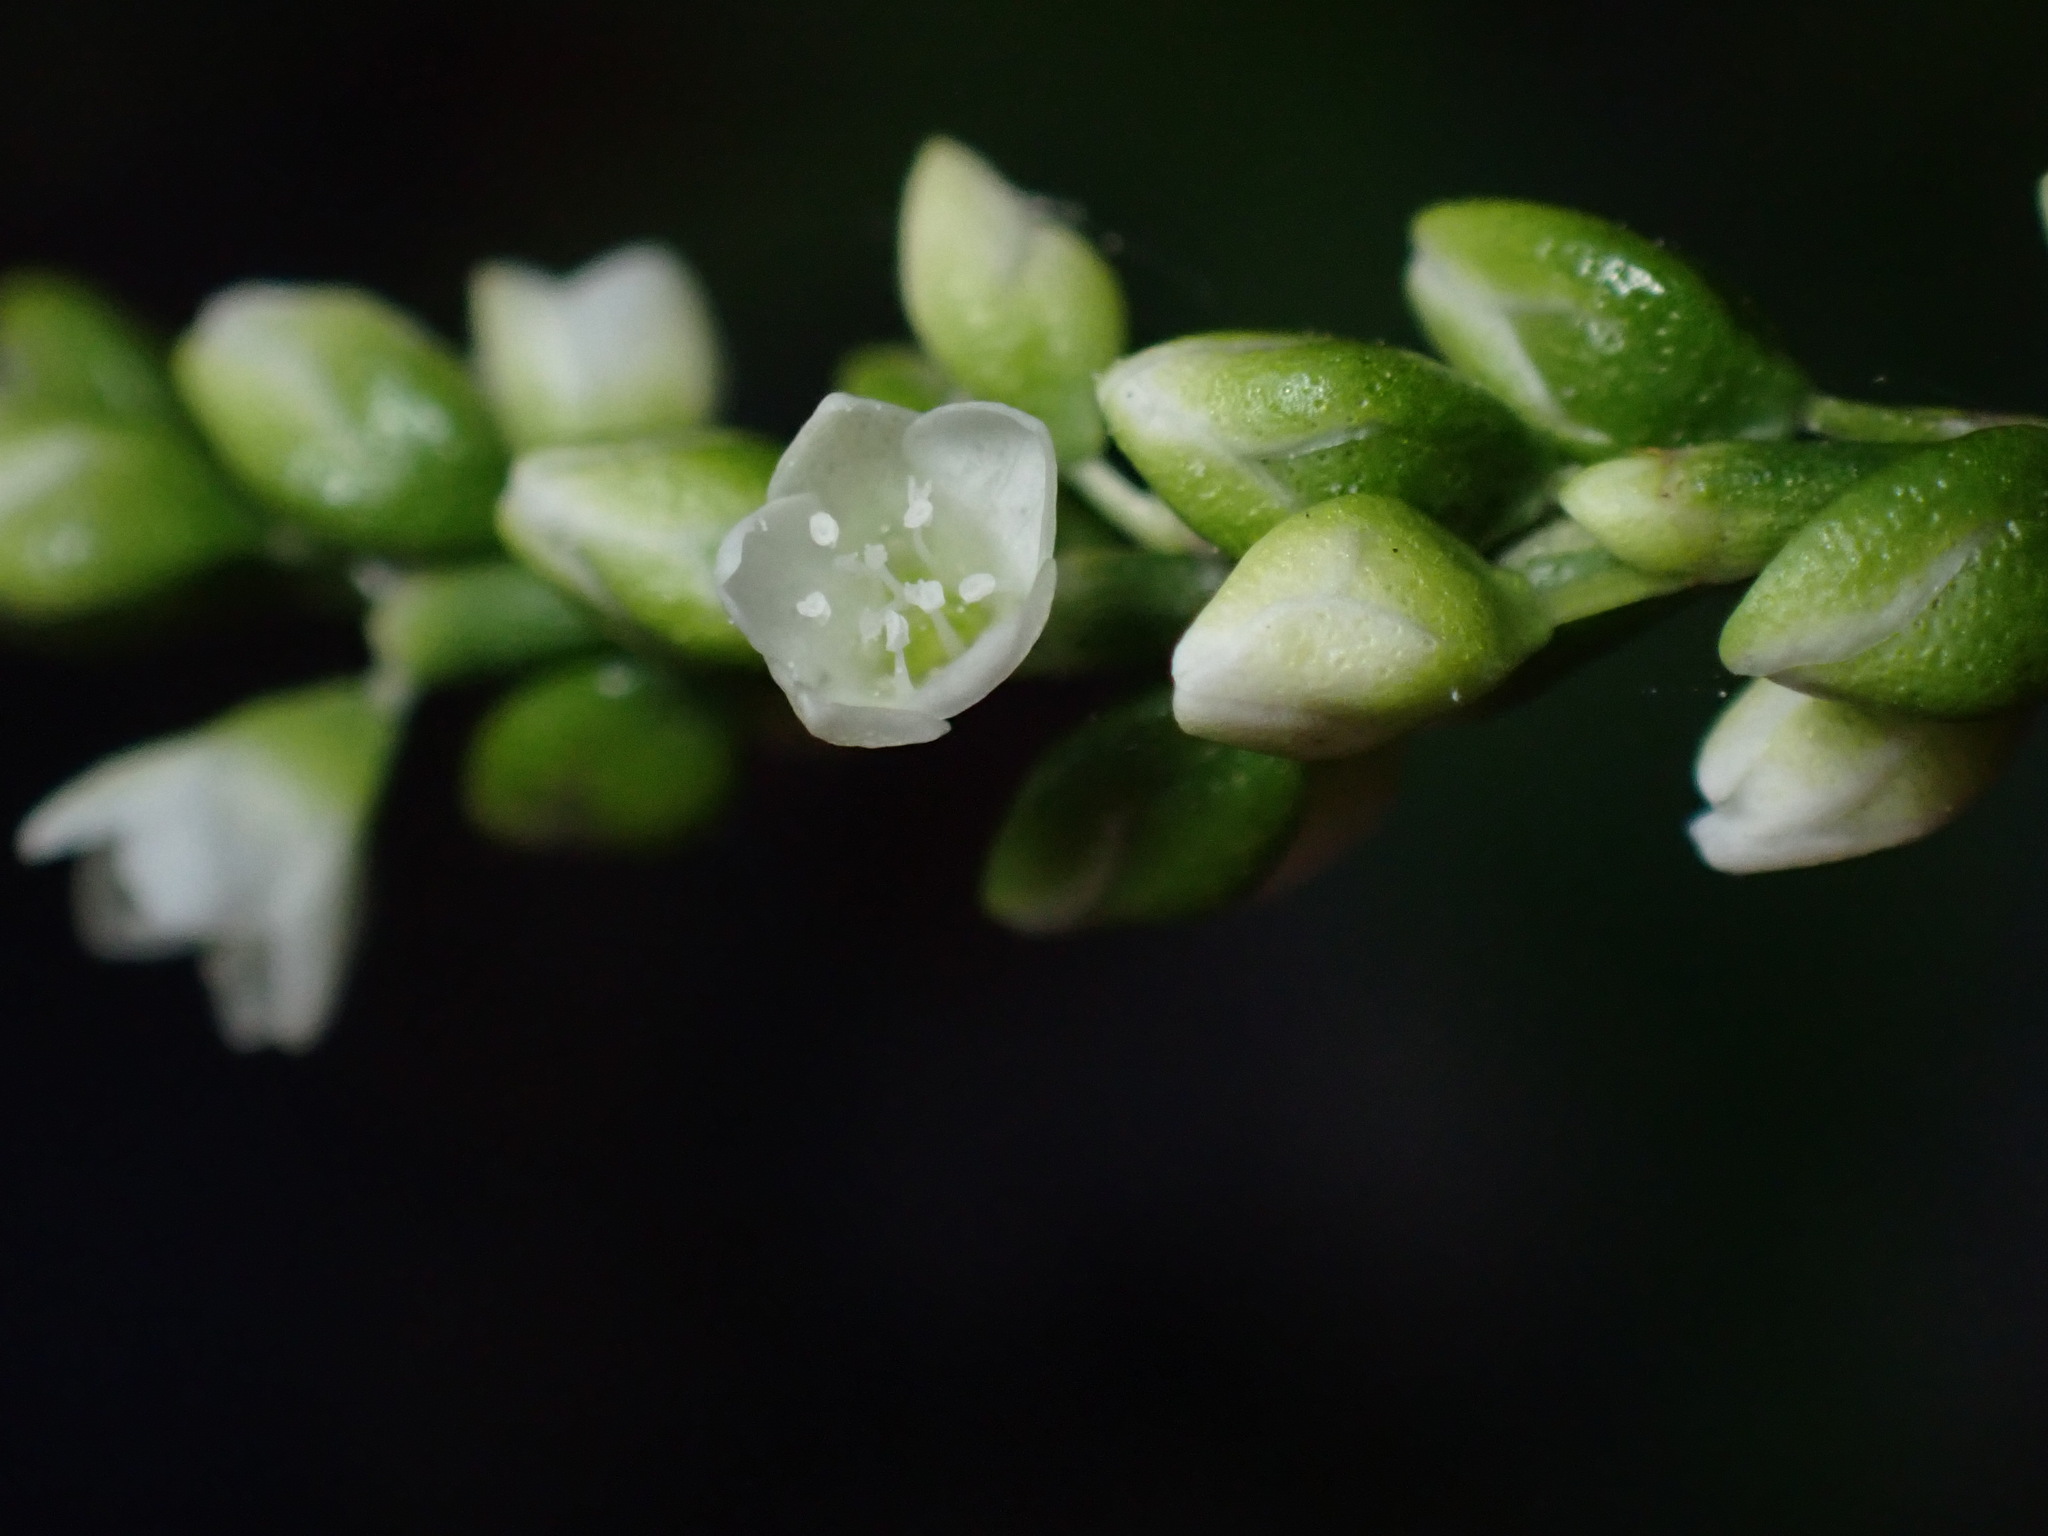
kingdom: Plantae
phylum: Tracheophyta
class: Magnoliopsida
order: Caryophyllales
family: Polygonaceae
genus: Persicaria
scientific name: Persicaria punctata
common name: Dotted smartweed
